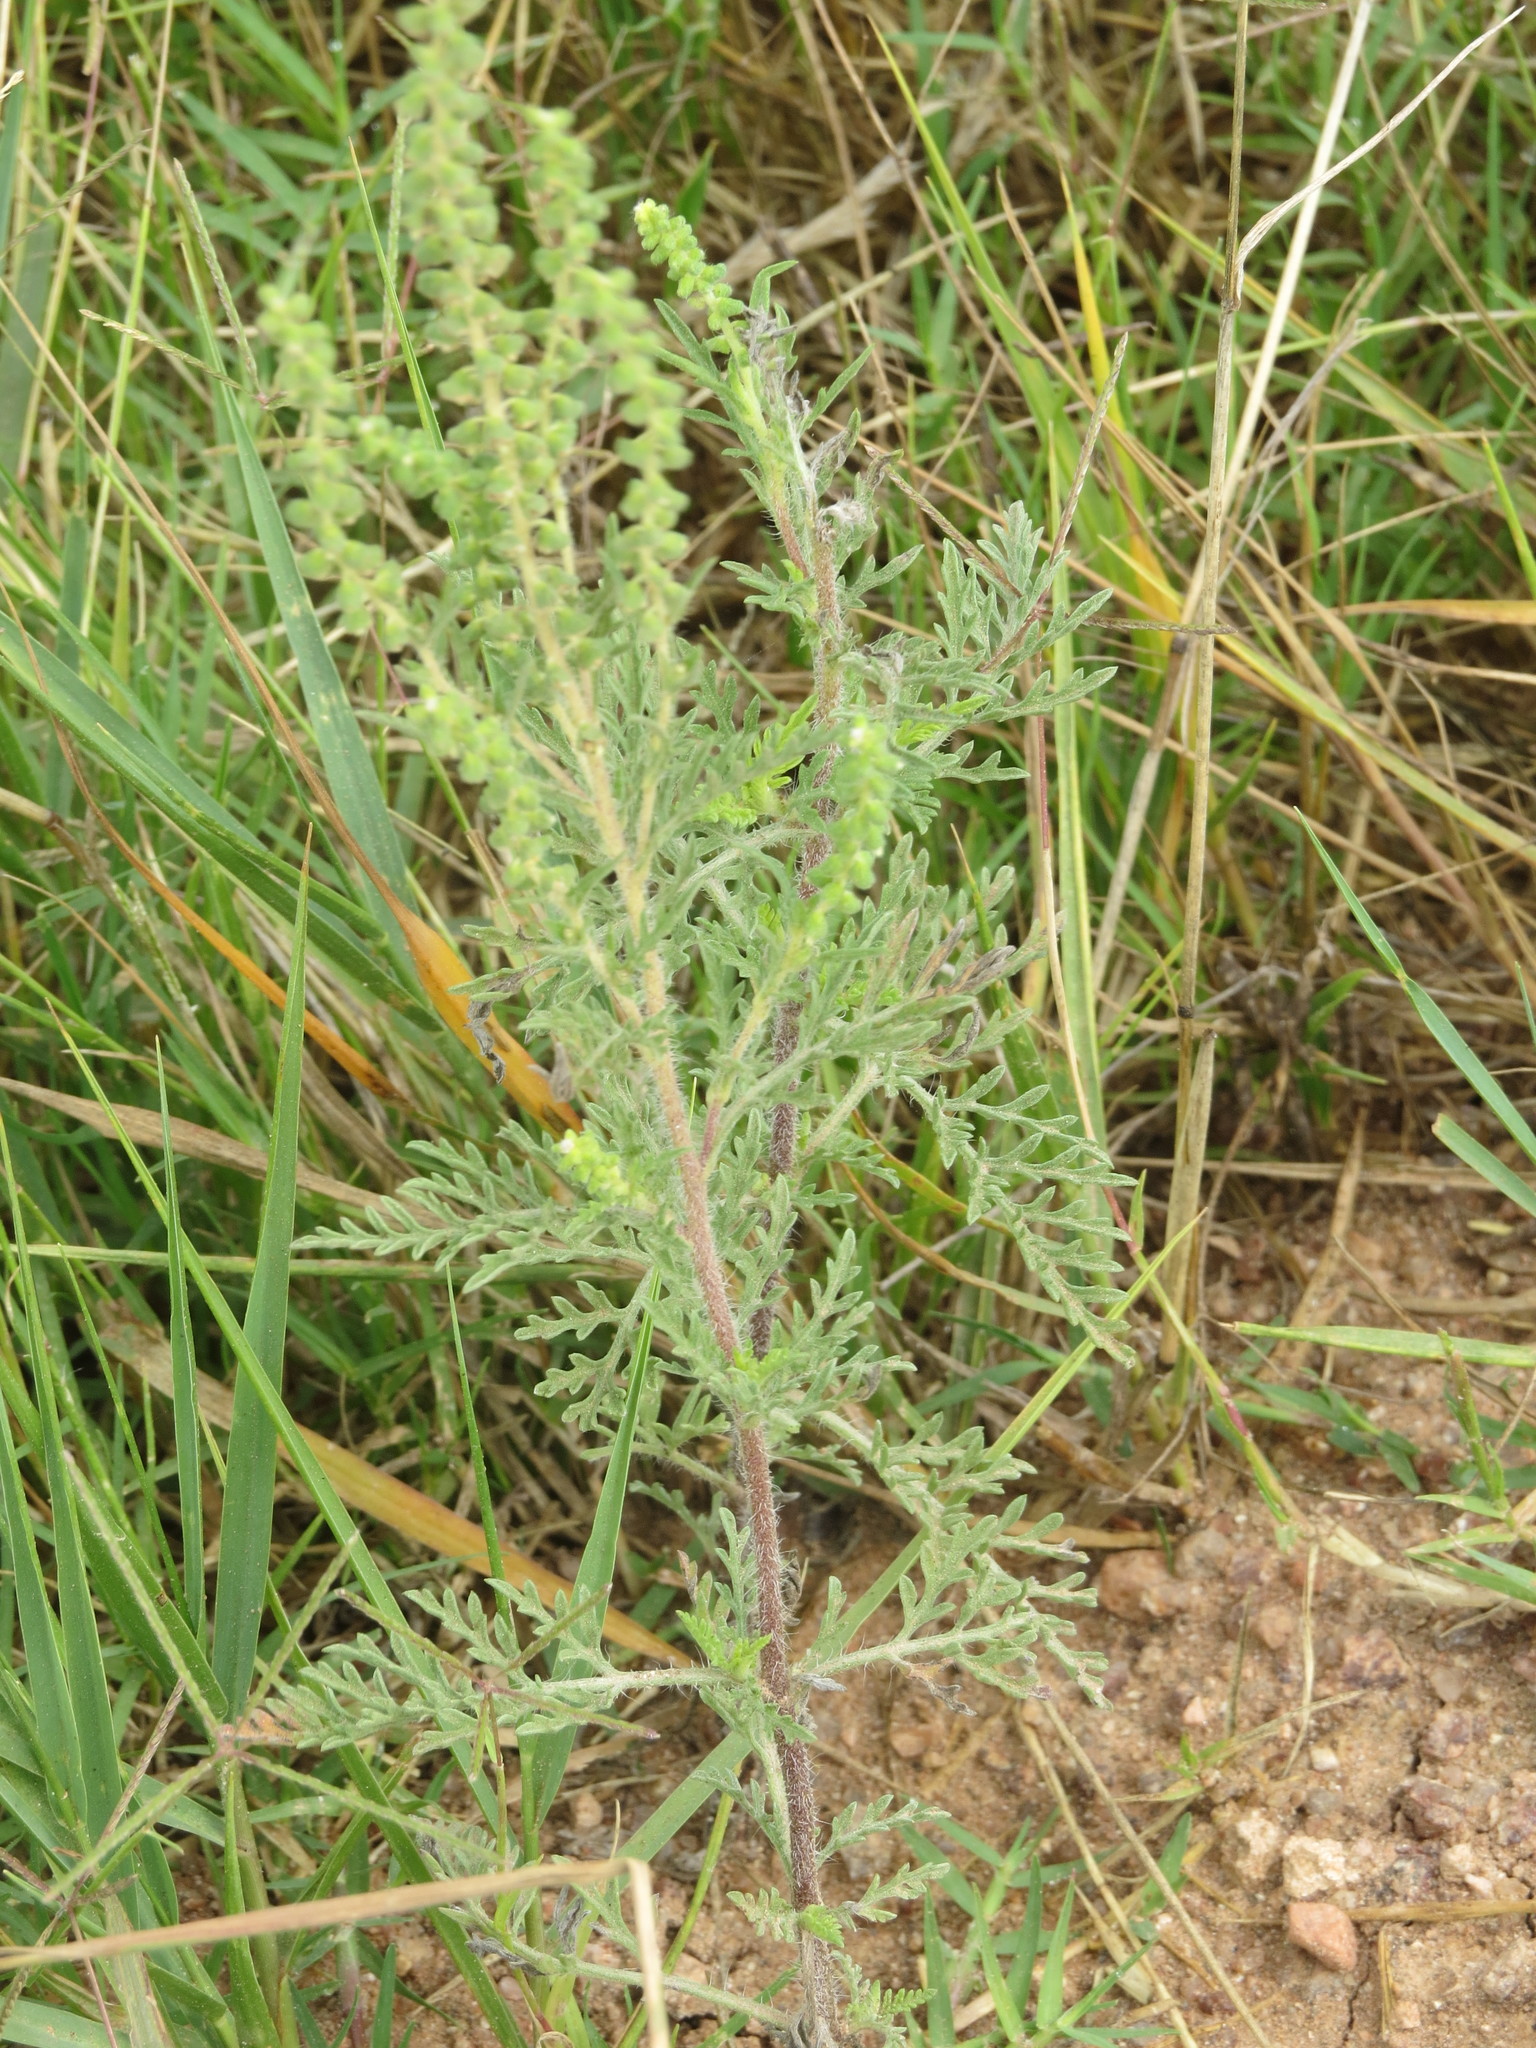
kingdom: Plantae
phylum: Tracheophyta
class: Magnoliopsida
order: Asterales
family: Asteraceae
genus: Ambrosia
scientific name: Ambrosia tenuifolia
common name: Lacy ambrosia
